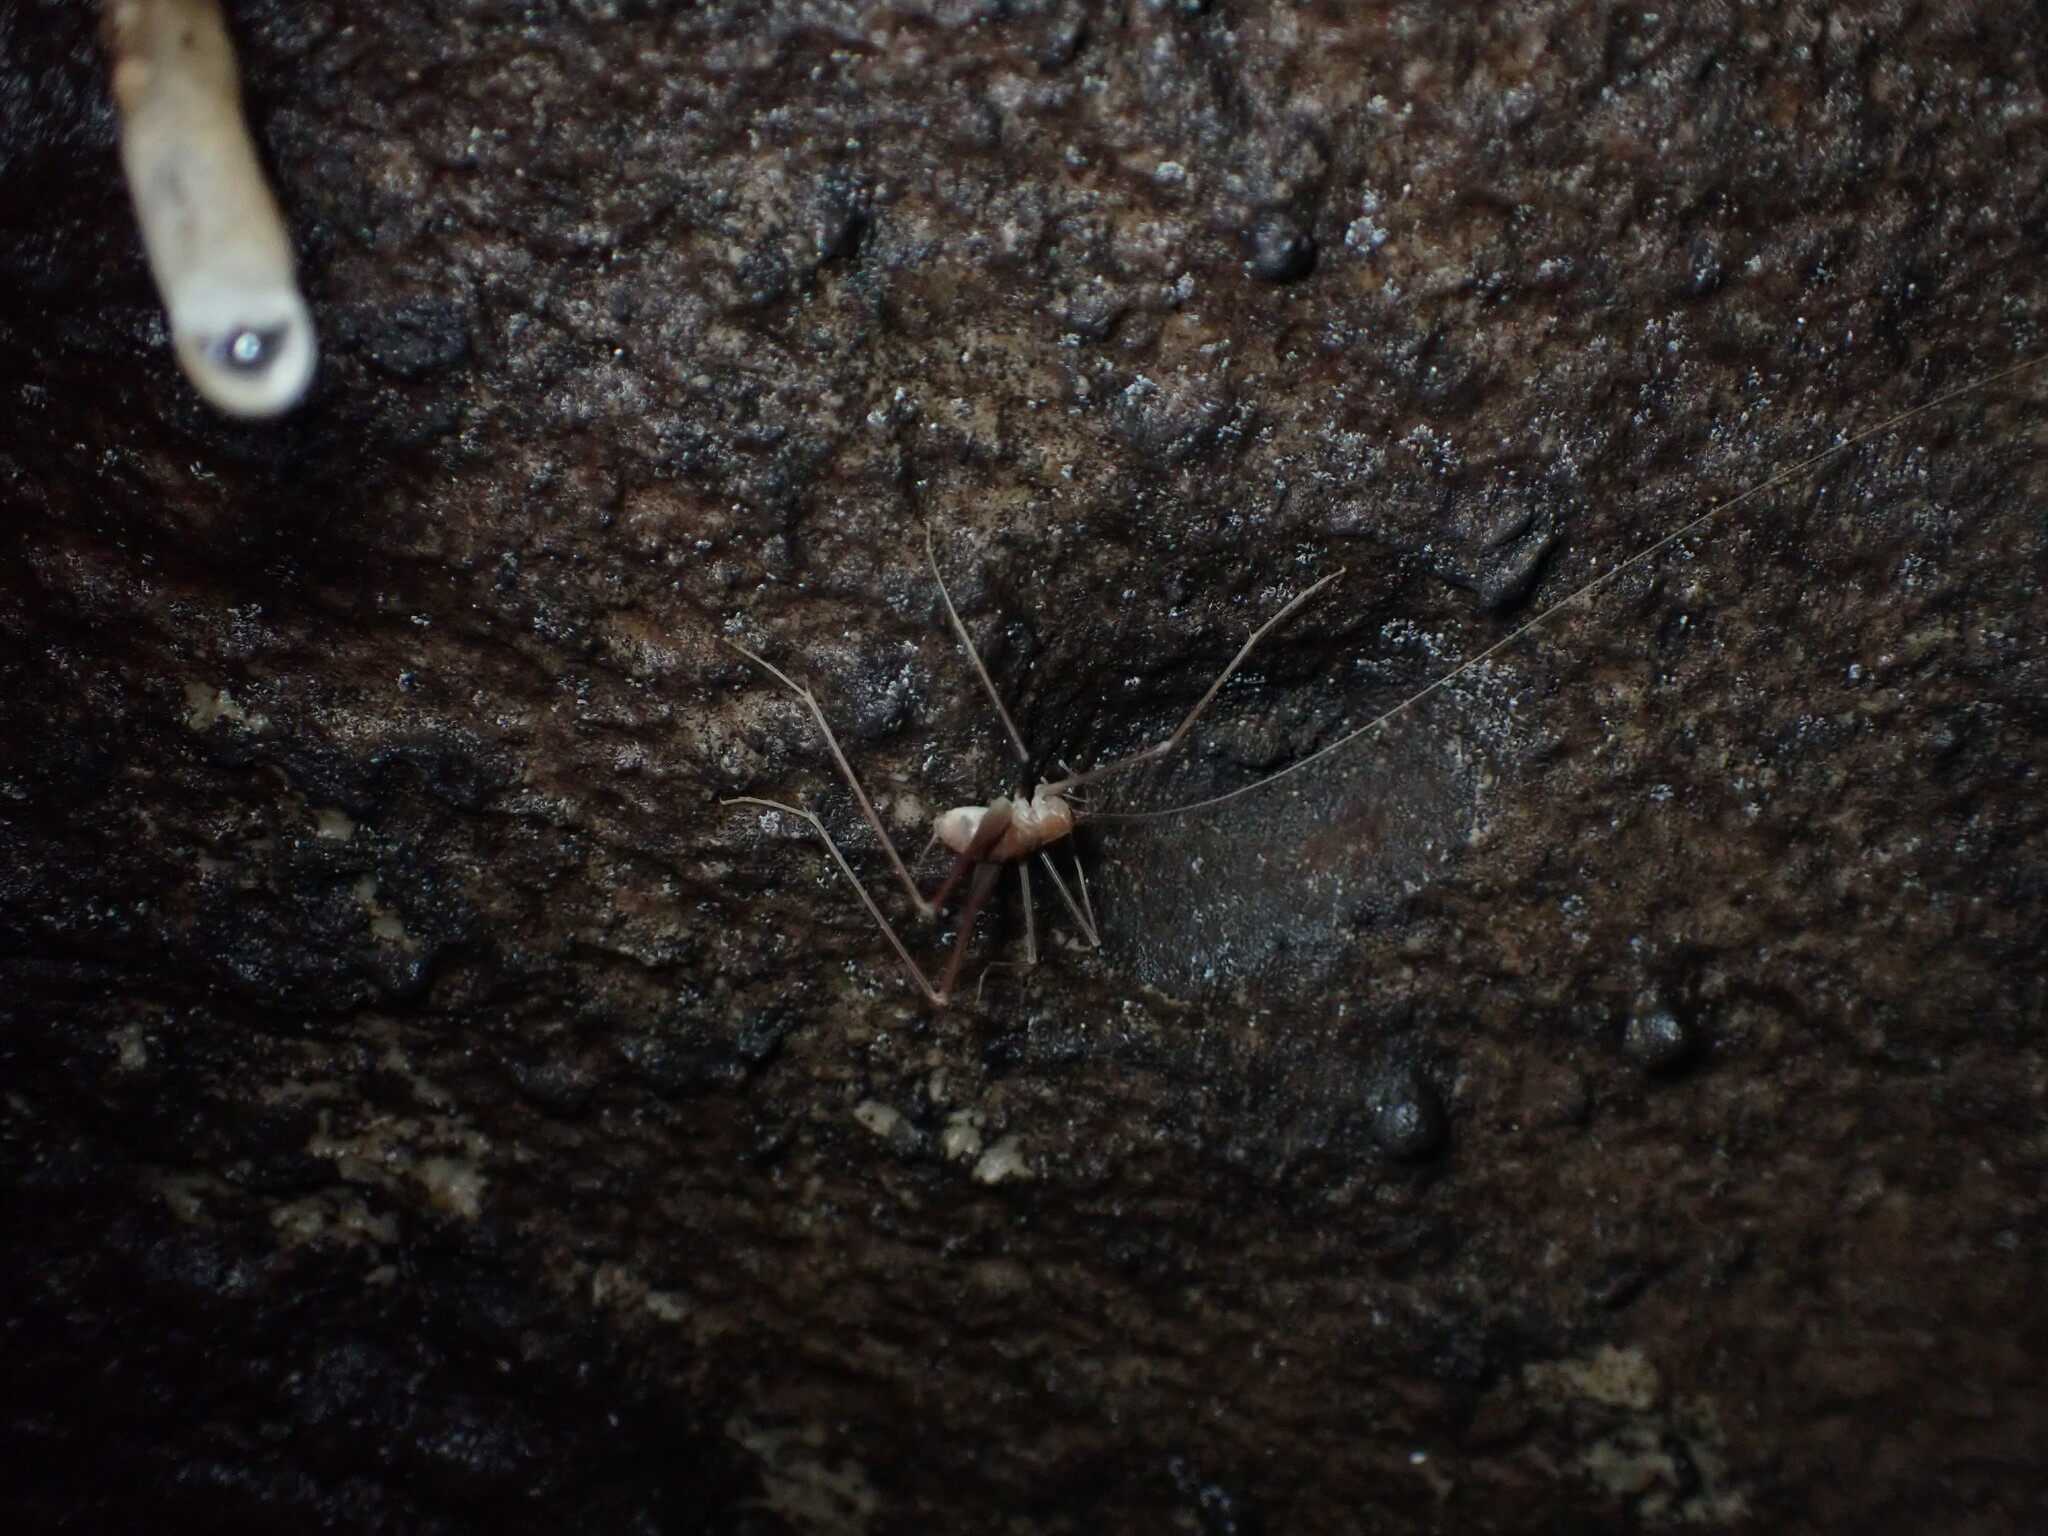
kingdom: Animalia
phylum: Arthropoda
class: Insecta
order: Orthoptera
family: Rhaphidophoridae
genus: Hadenoecus
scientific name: Hadenoecus jonesi
